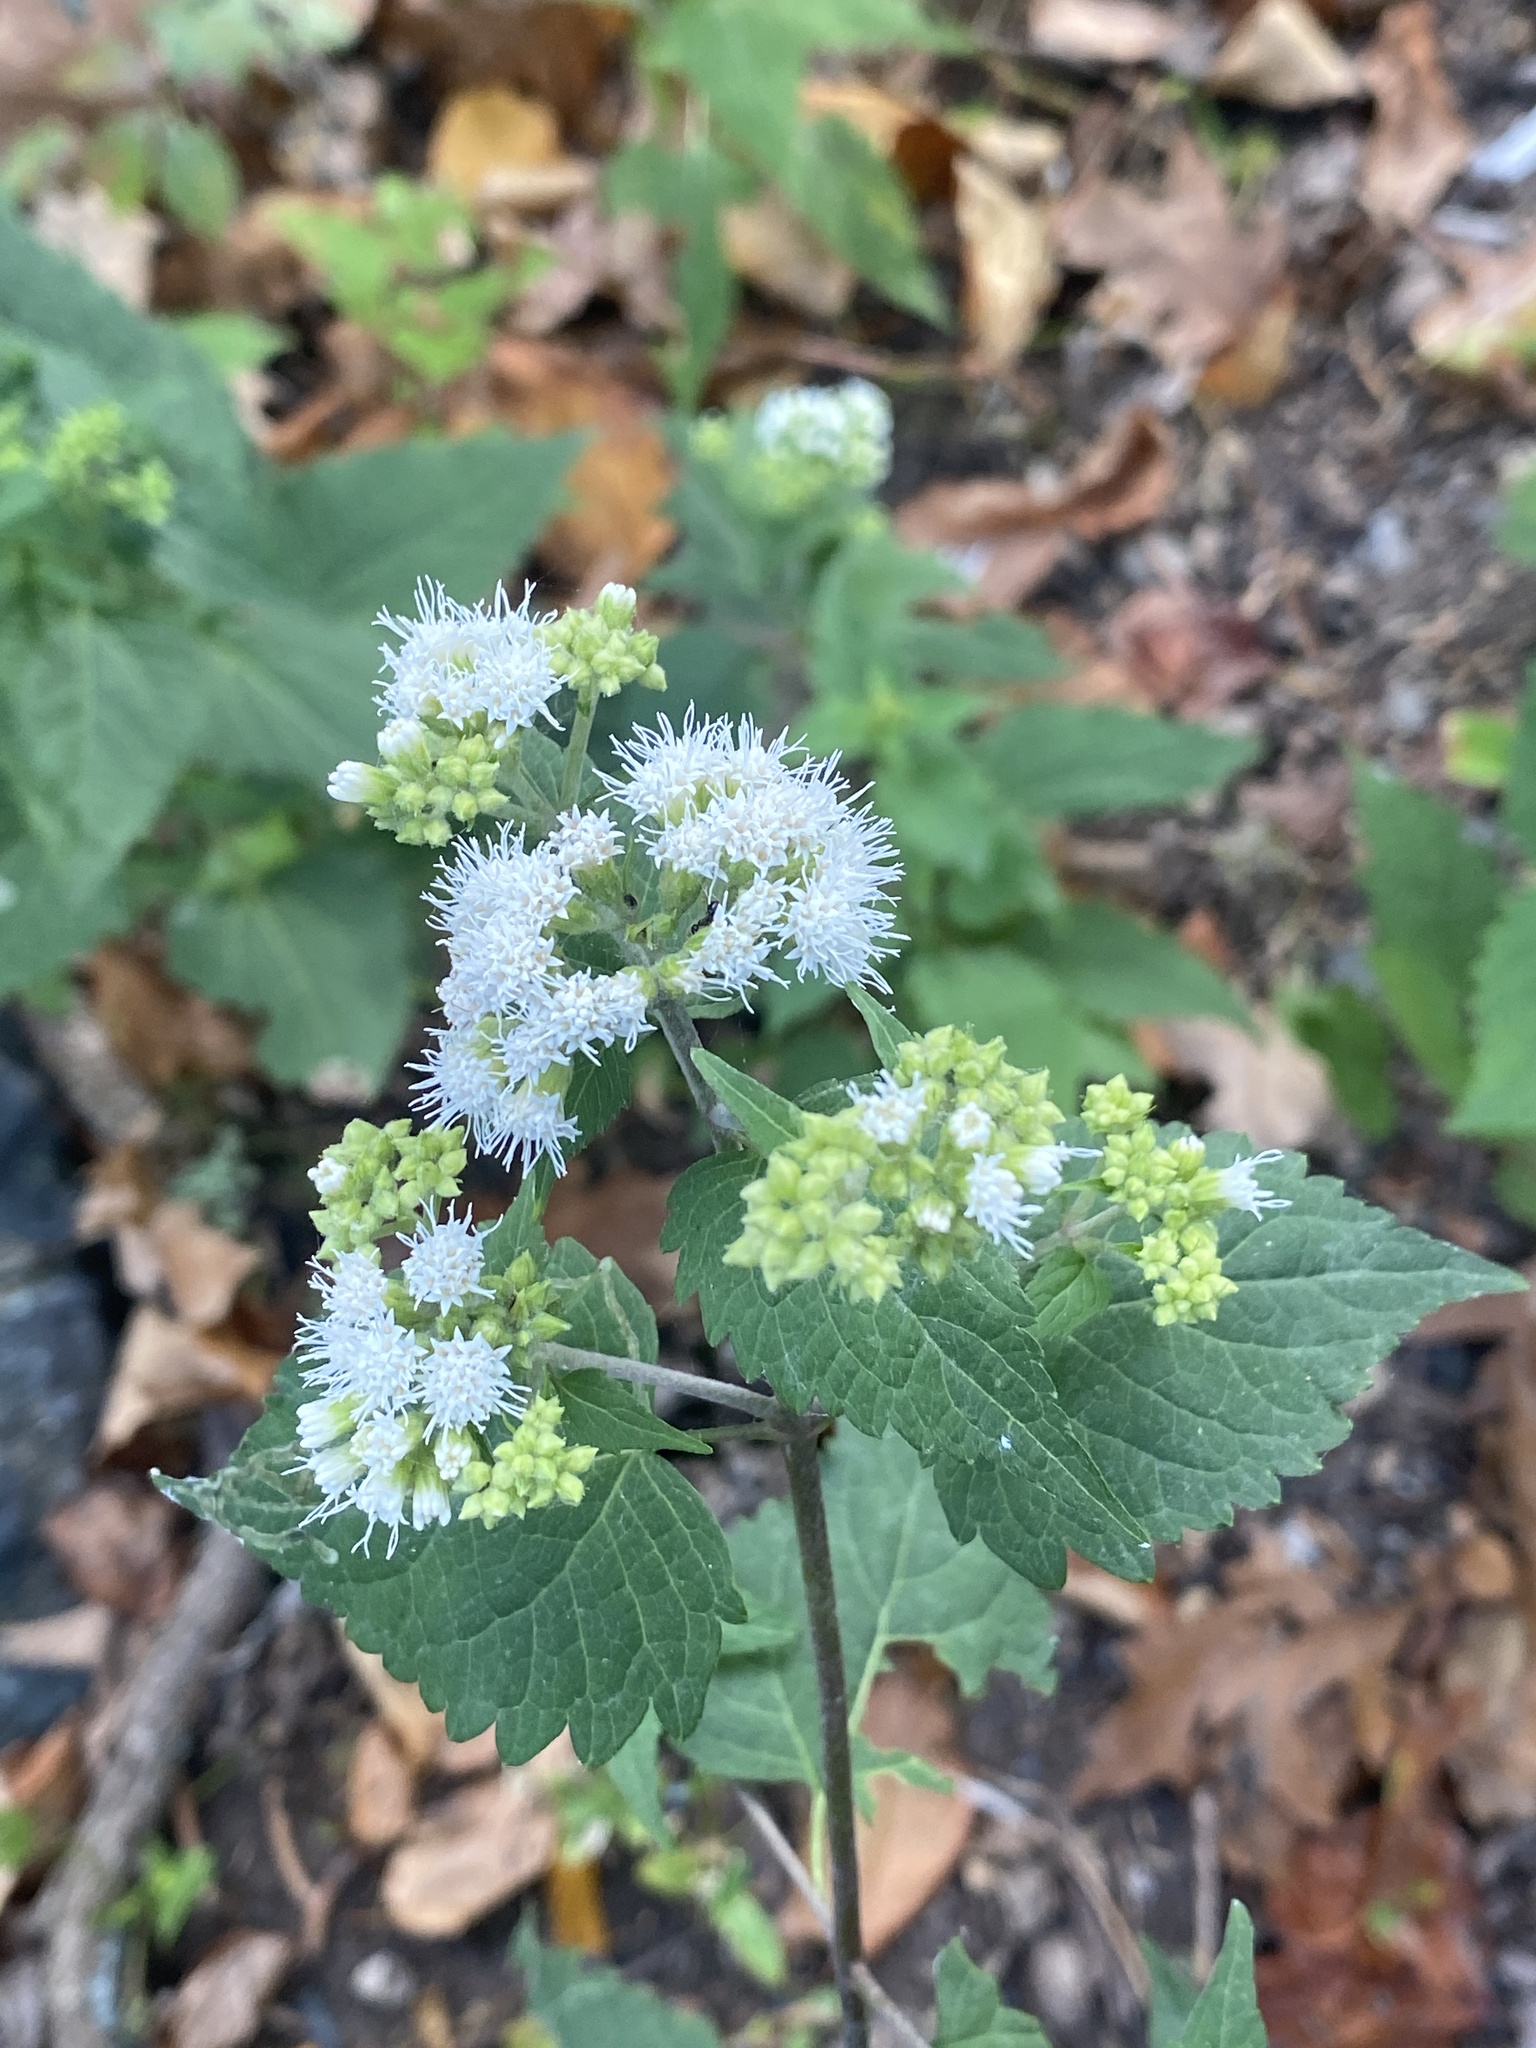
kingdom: Plantae
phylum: Tracheophyta
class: Magnoliopsida
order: Asterales
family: Asteraceae
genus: Ageratina
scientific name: Ageratina altissima
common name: White snakeroot
